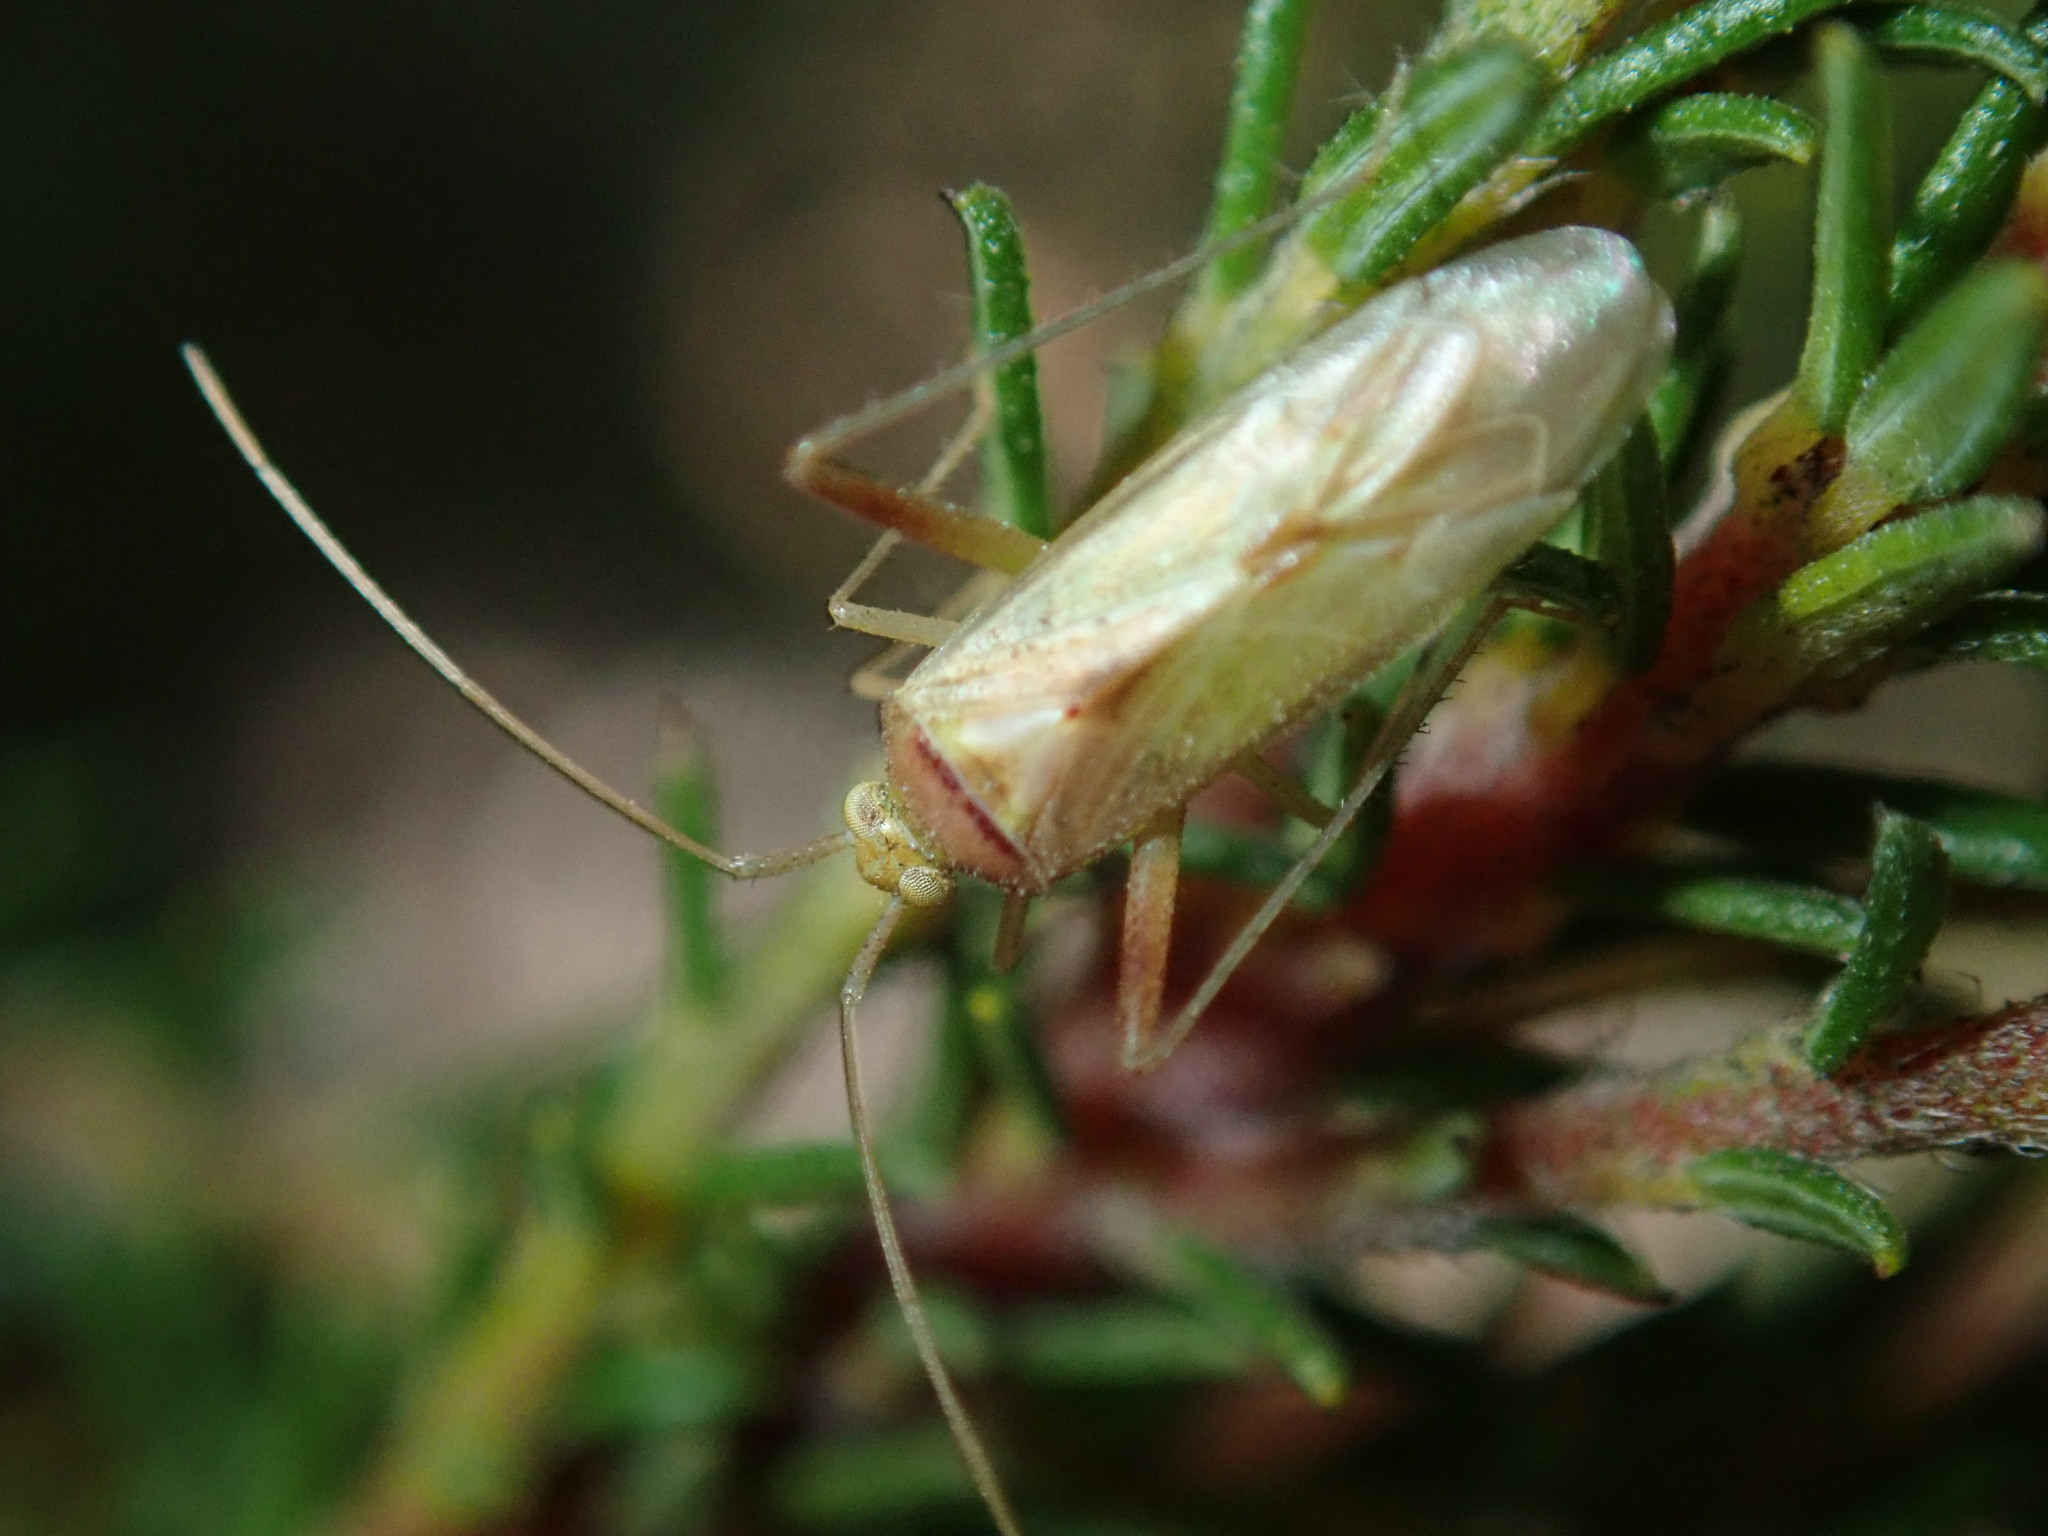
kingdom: Animalia
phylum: Arthropoda
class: Insecta
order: Hemiptera
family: Miridae
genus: Creontiades
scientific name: Creontiades dilutus
